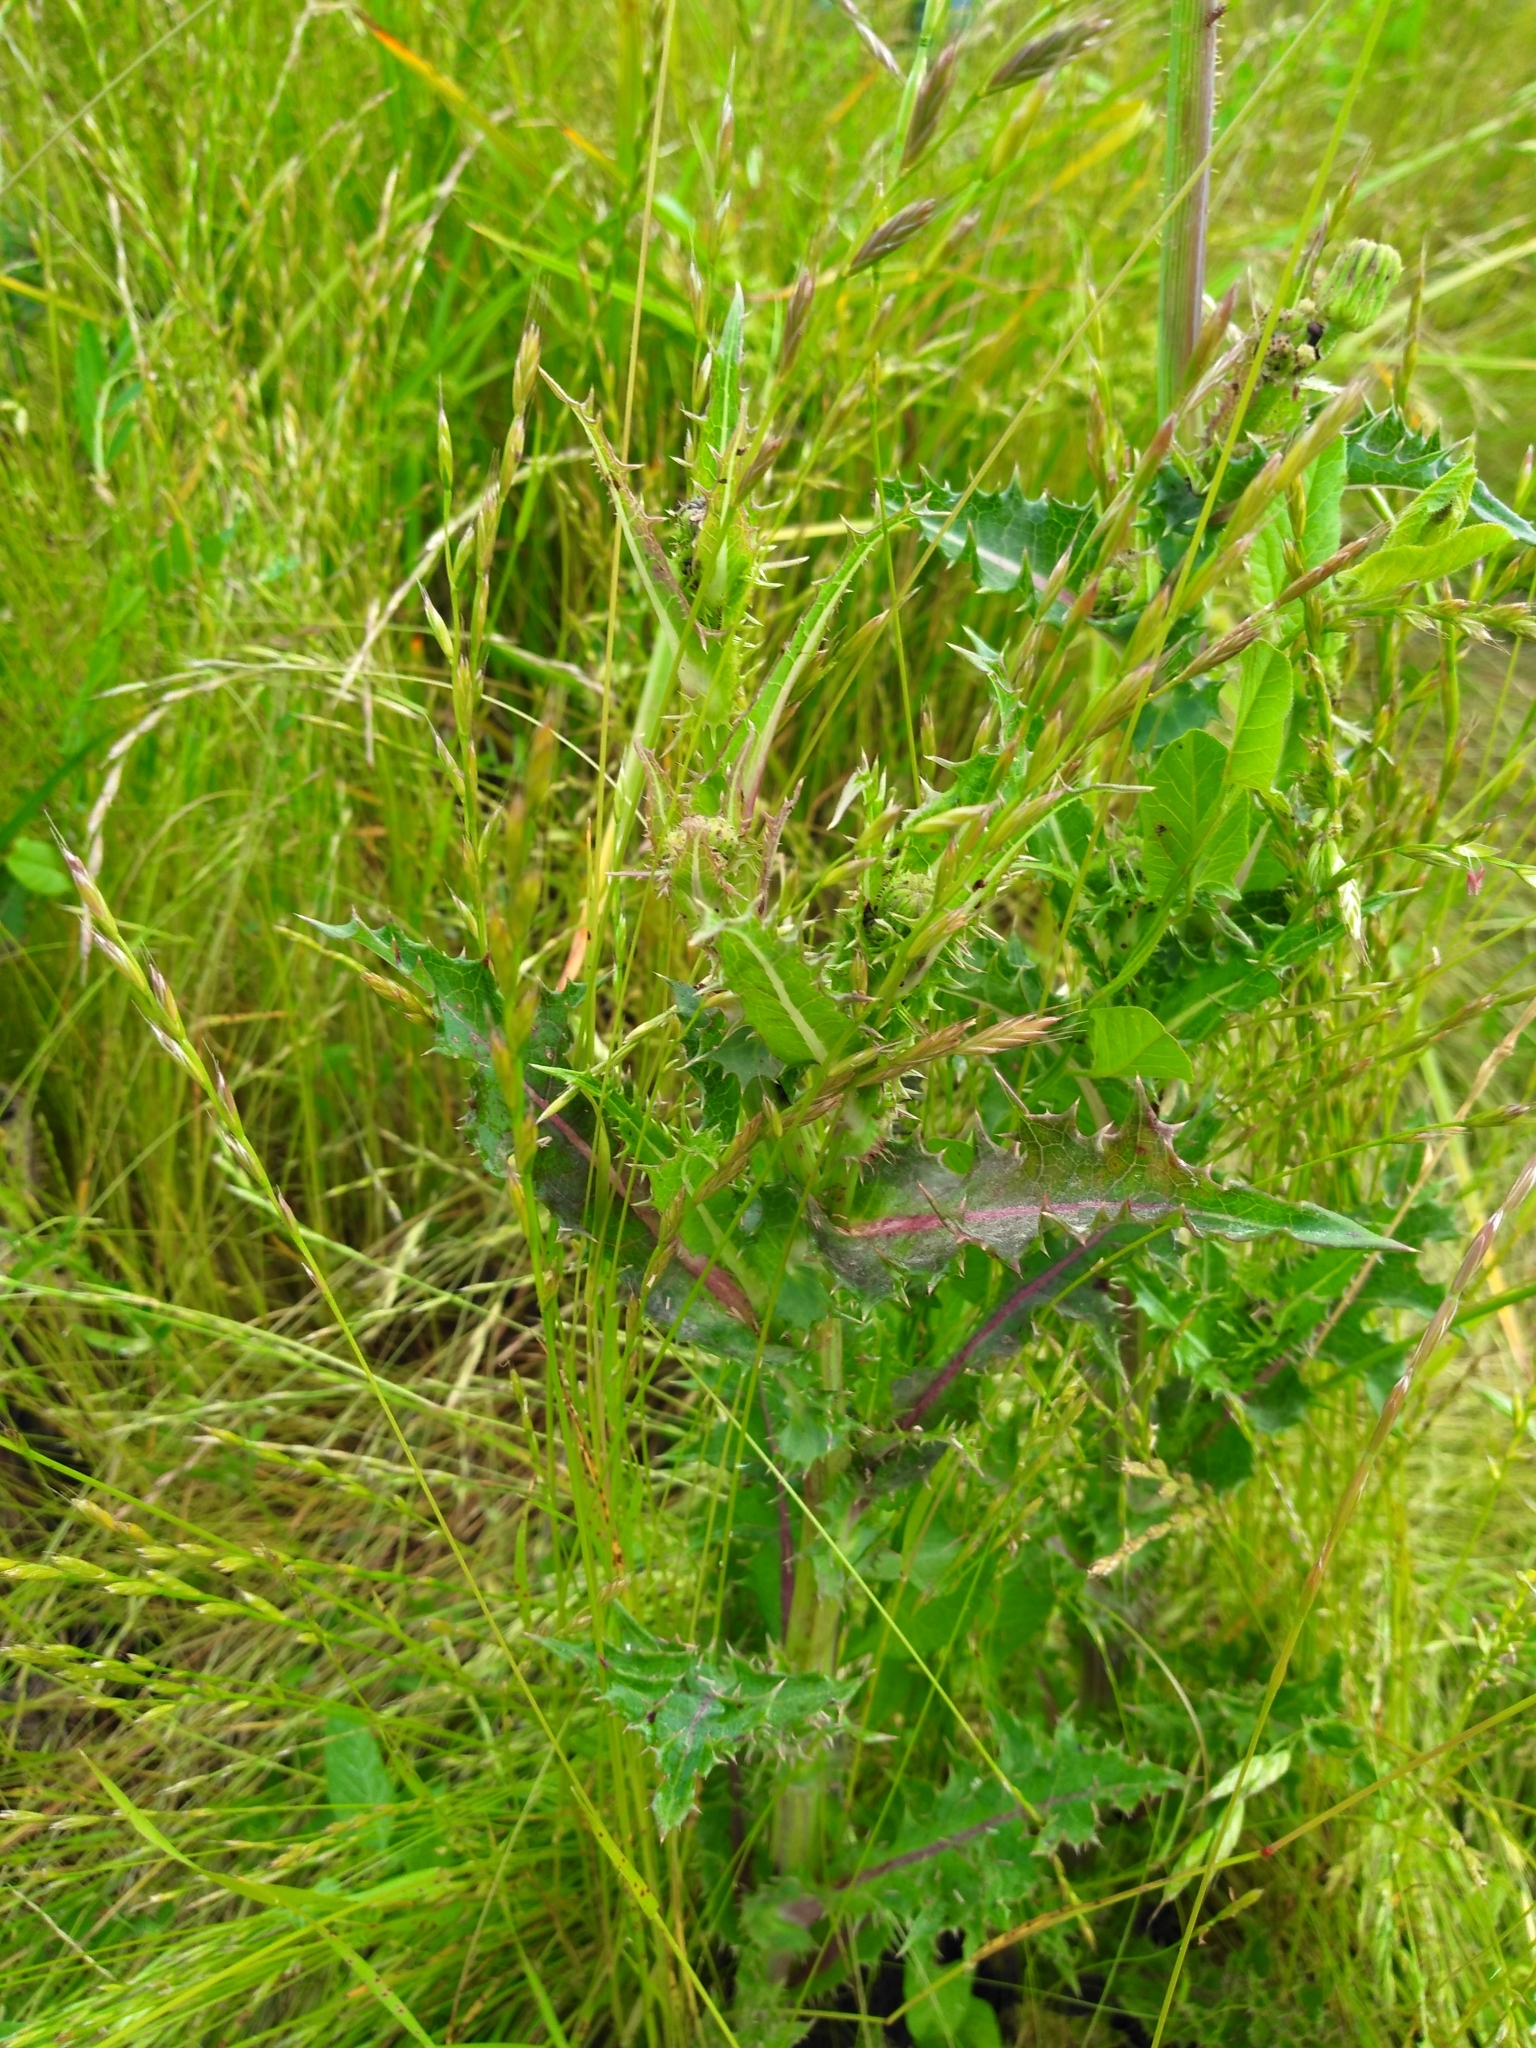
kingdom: Plantae
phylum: Tracheophyta
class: Magnoliopsida
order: Asterales
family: Asteraceae
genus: Sonchus
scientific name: Sonchus asper
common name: Prickly sow-thistle
